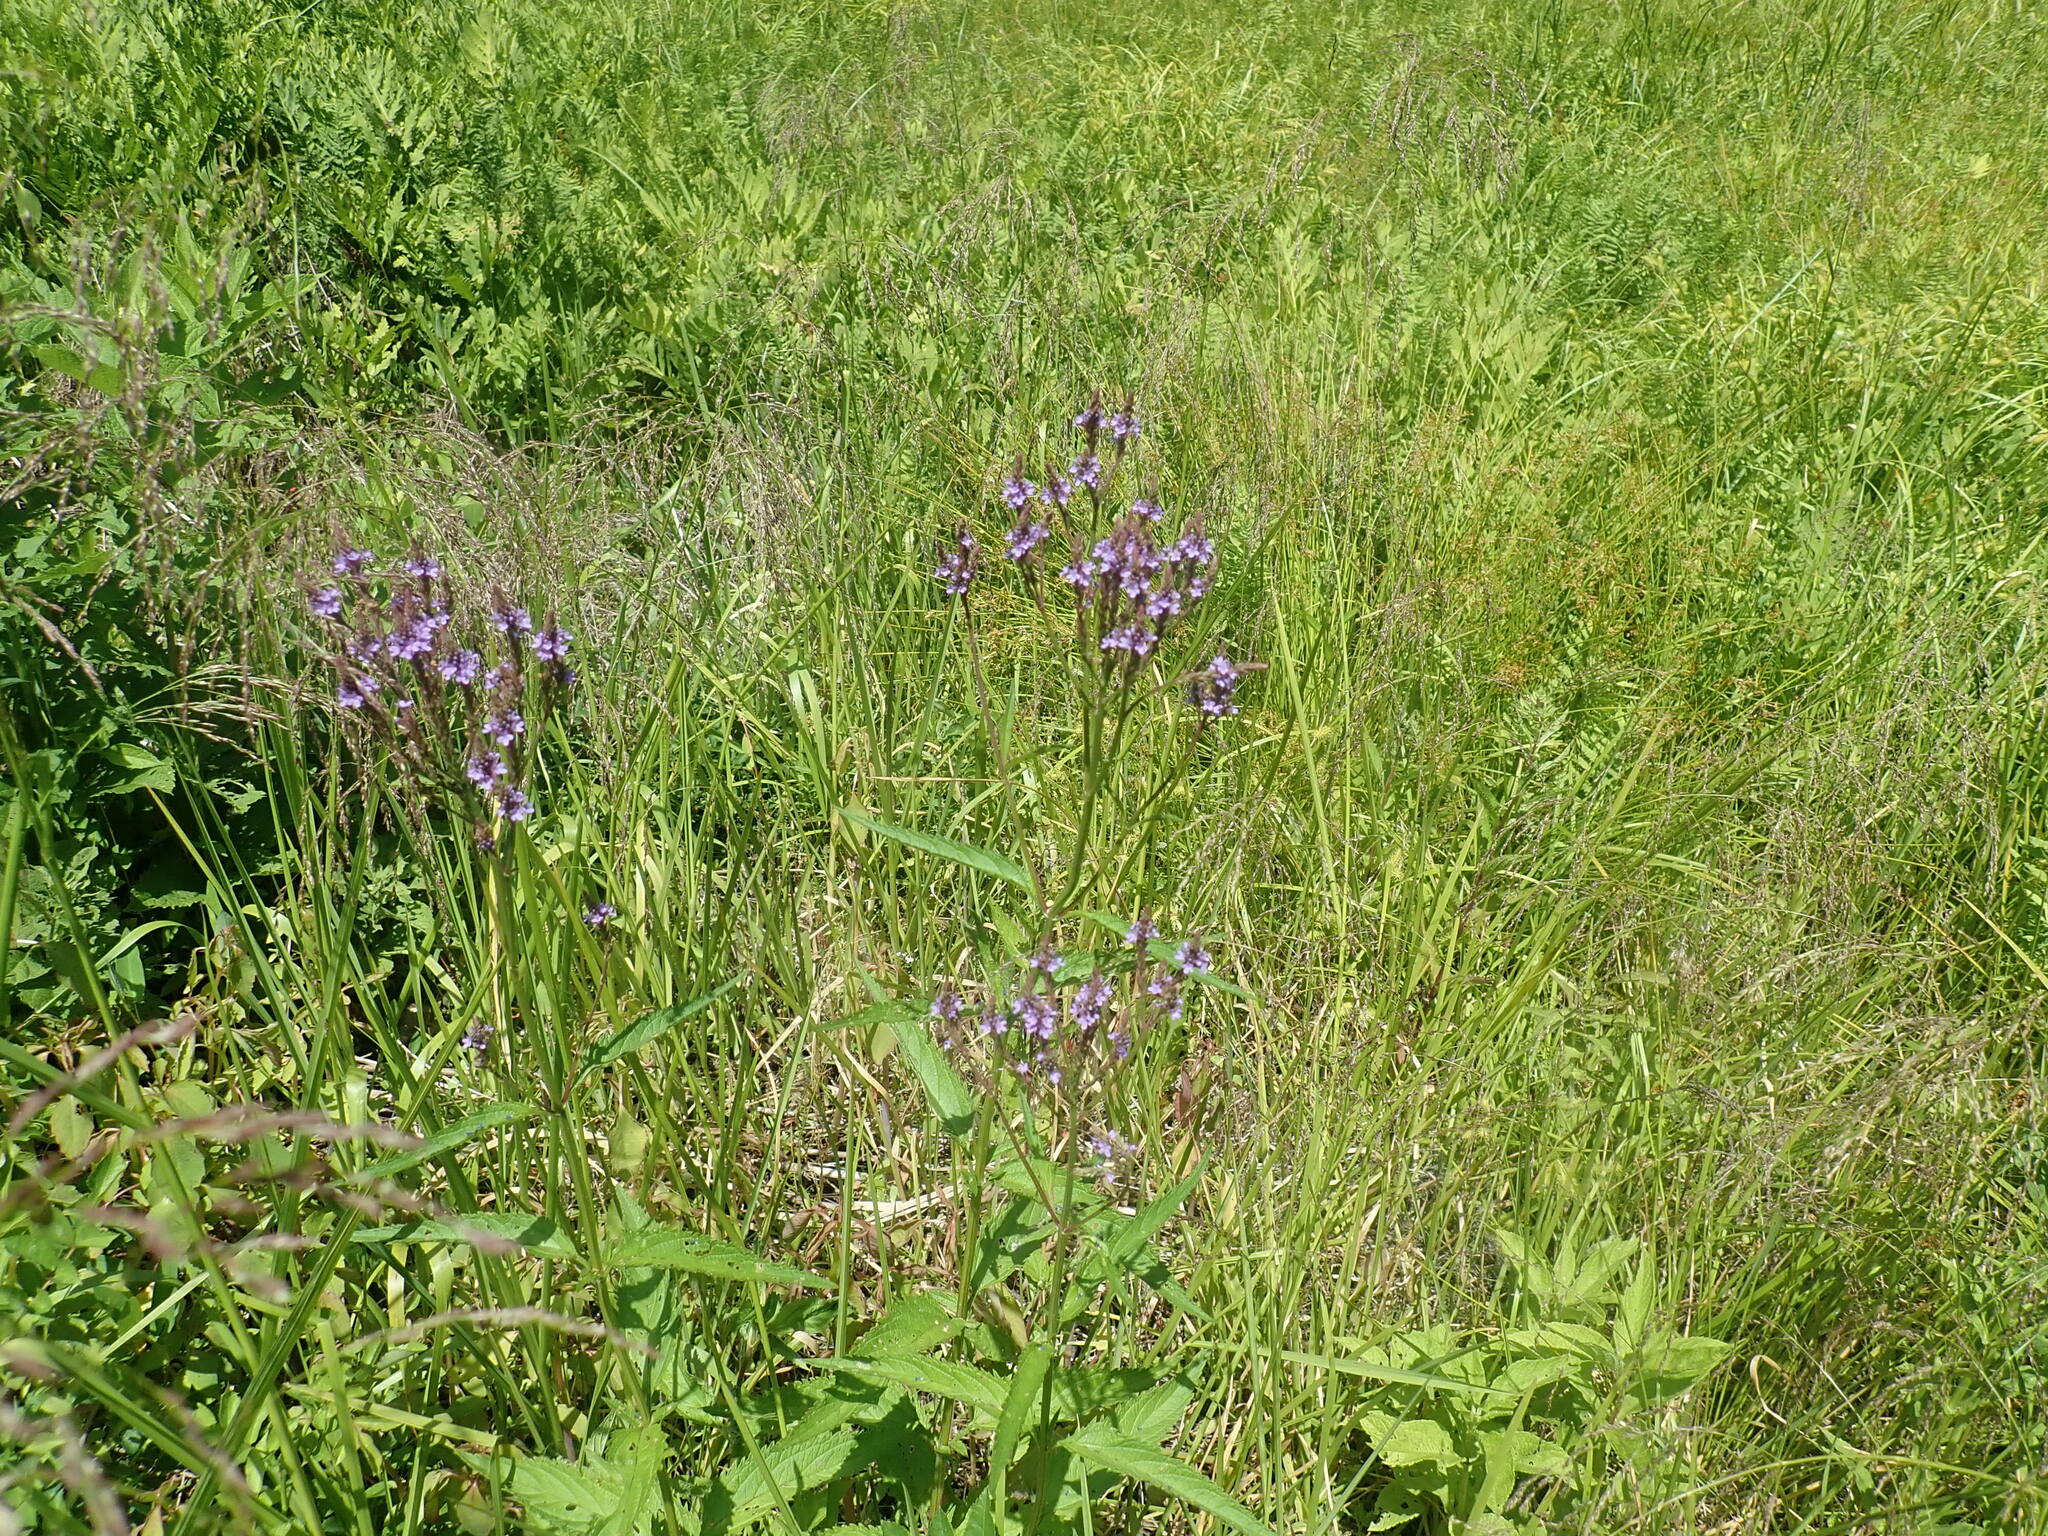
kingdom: Plantae
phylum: Tracheophyta
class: Magnoliopsida
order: Lamiales
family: Verbenaceae
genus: Verbena
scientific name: Verbena hastata
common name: American blue vervain
